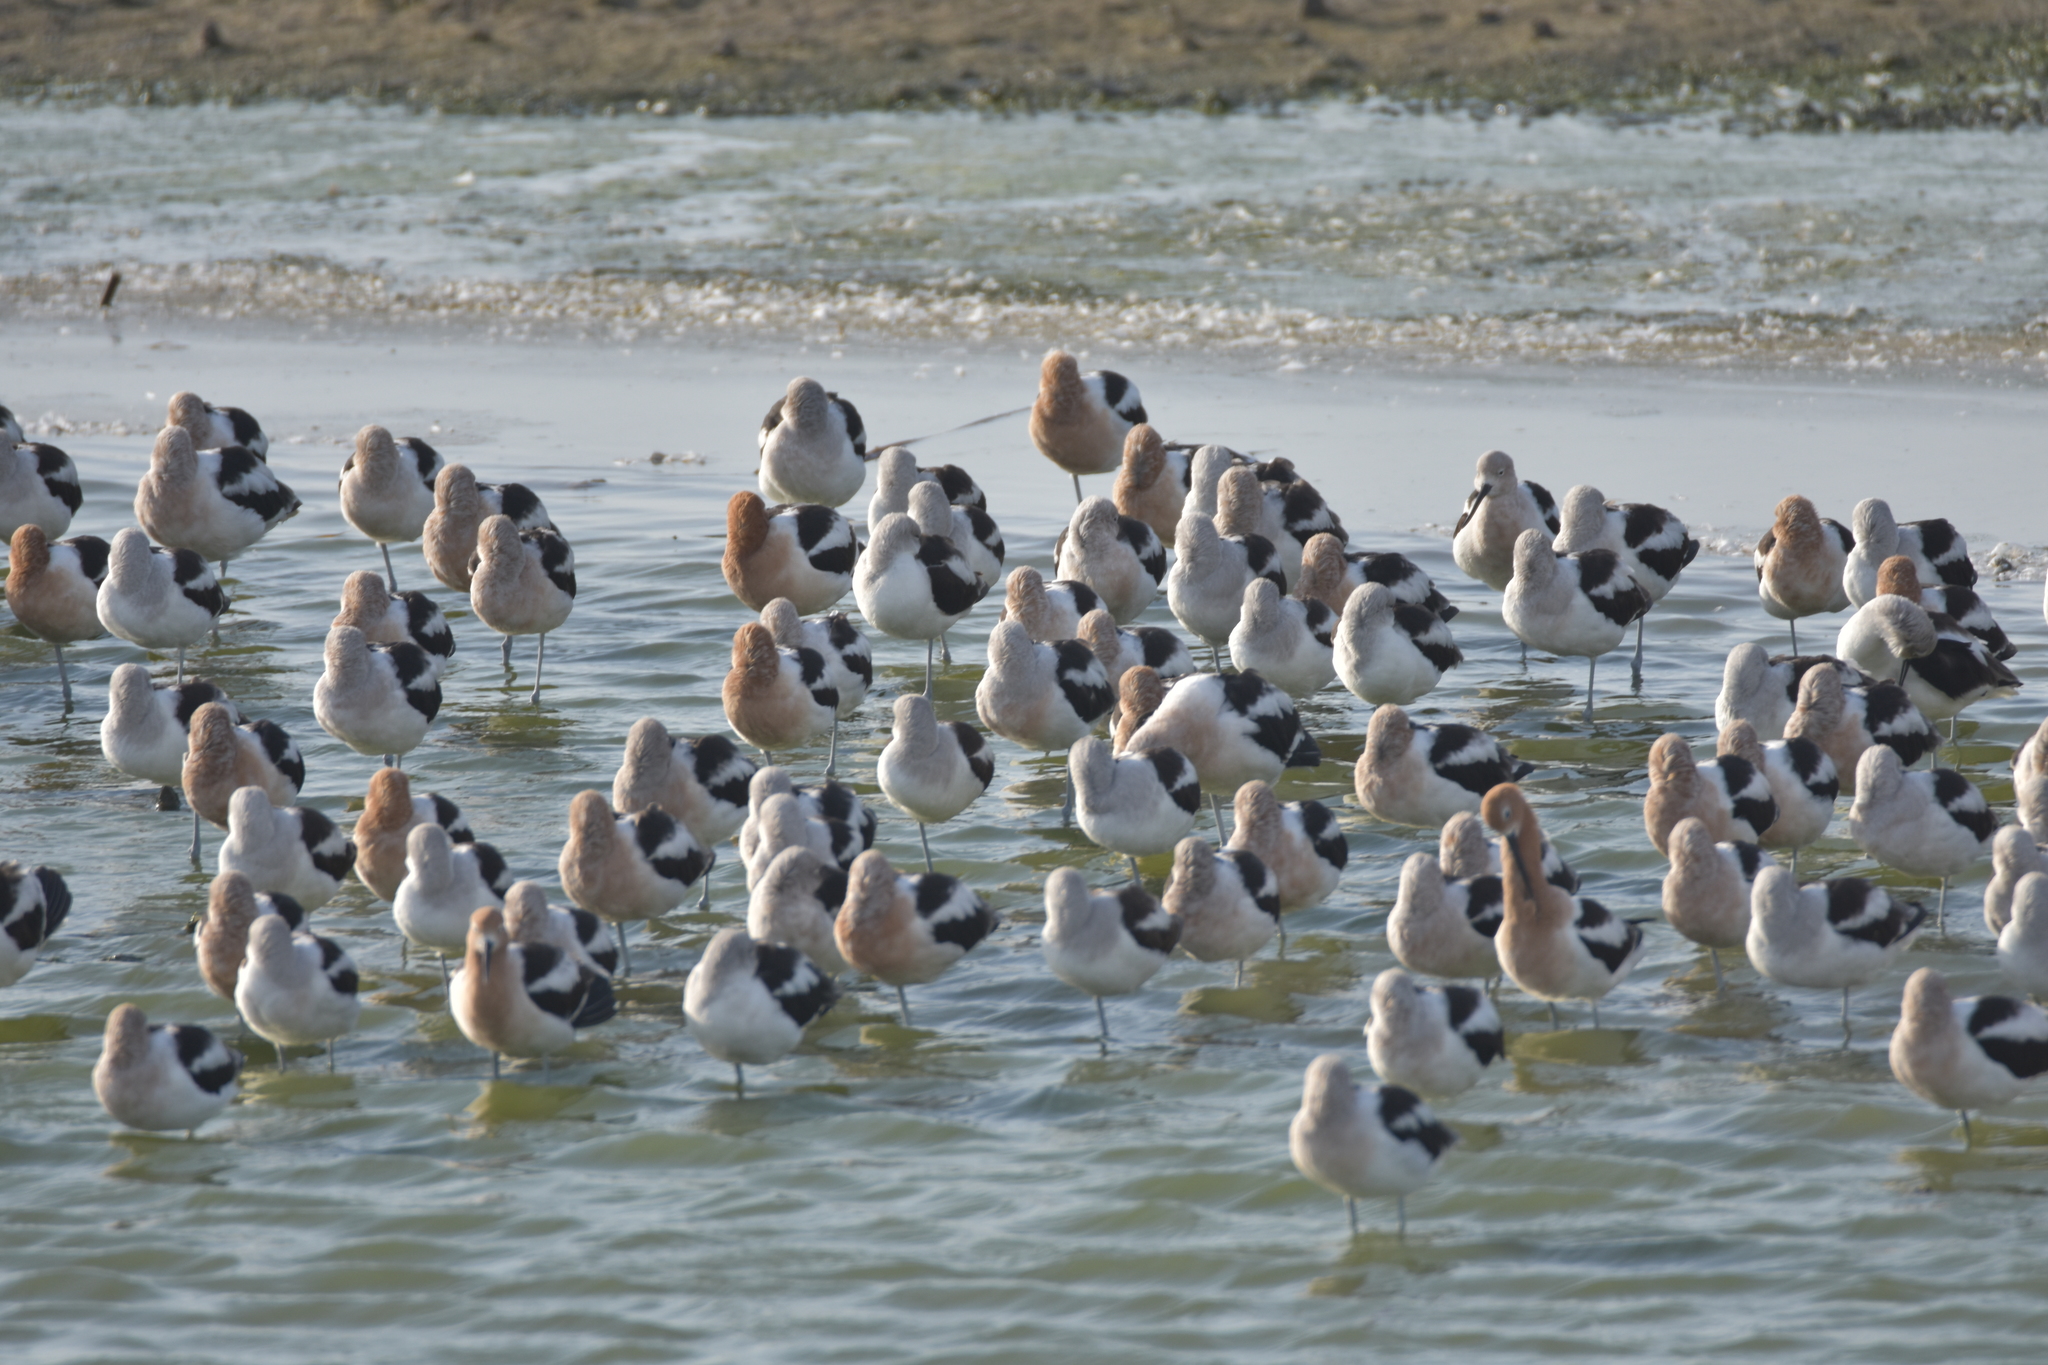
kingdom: Animalia
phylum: Chordata
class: Aves
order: Charadriiformes
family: Recurvirostridae
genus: Recurvirostra
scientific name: Recurvirostra americana
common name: American avocet
